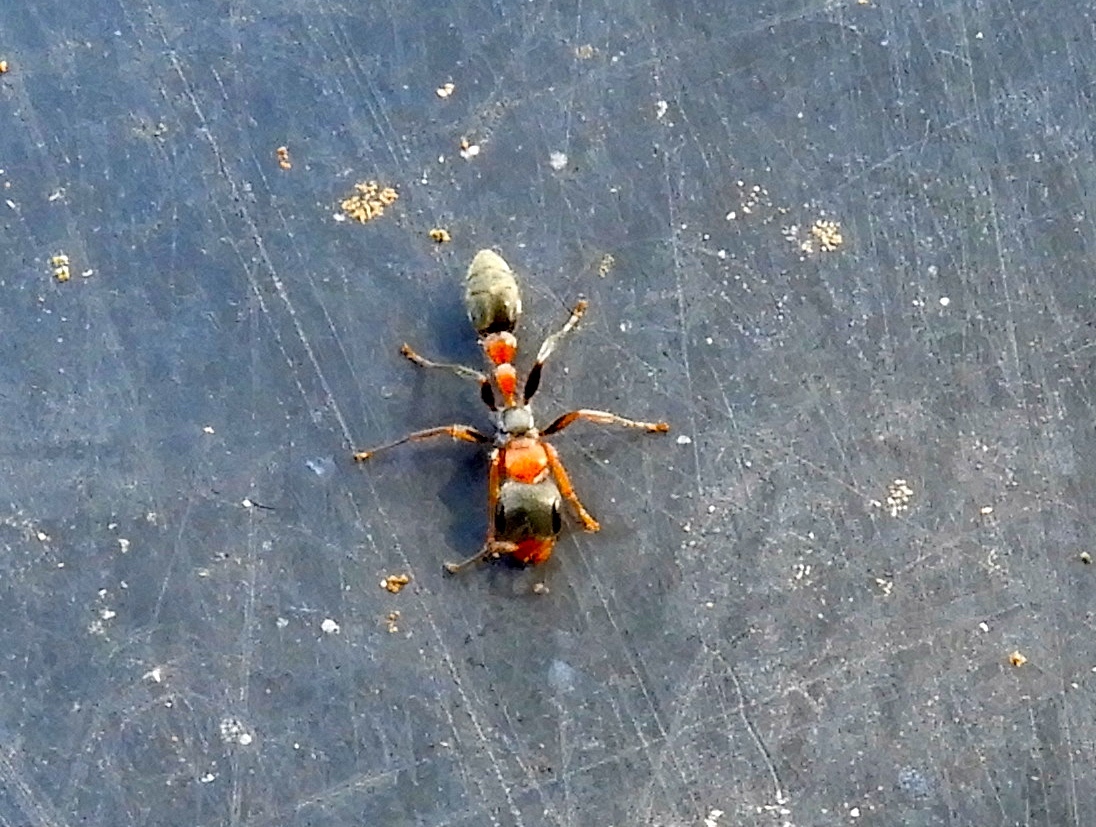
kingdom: Animalia
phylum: Arthropoda
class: Insecta
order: Hymenoptera
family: Formicidae
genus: Pseudomyrmex
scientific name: Pseudomyrmex gracilis
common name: Graceful twig ant
